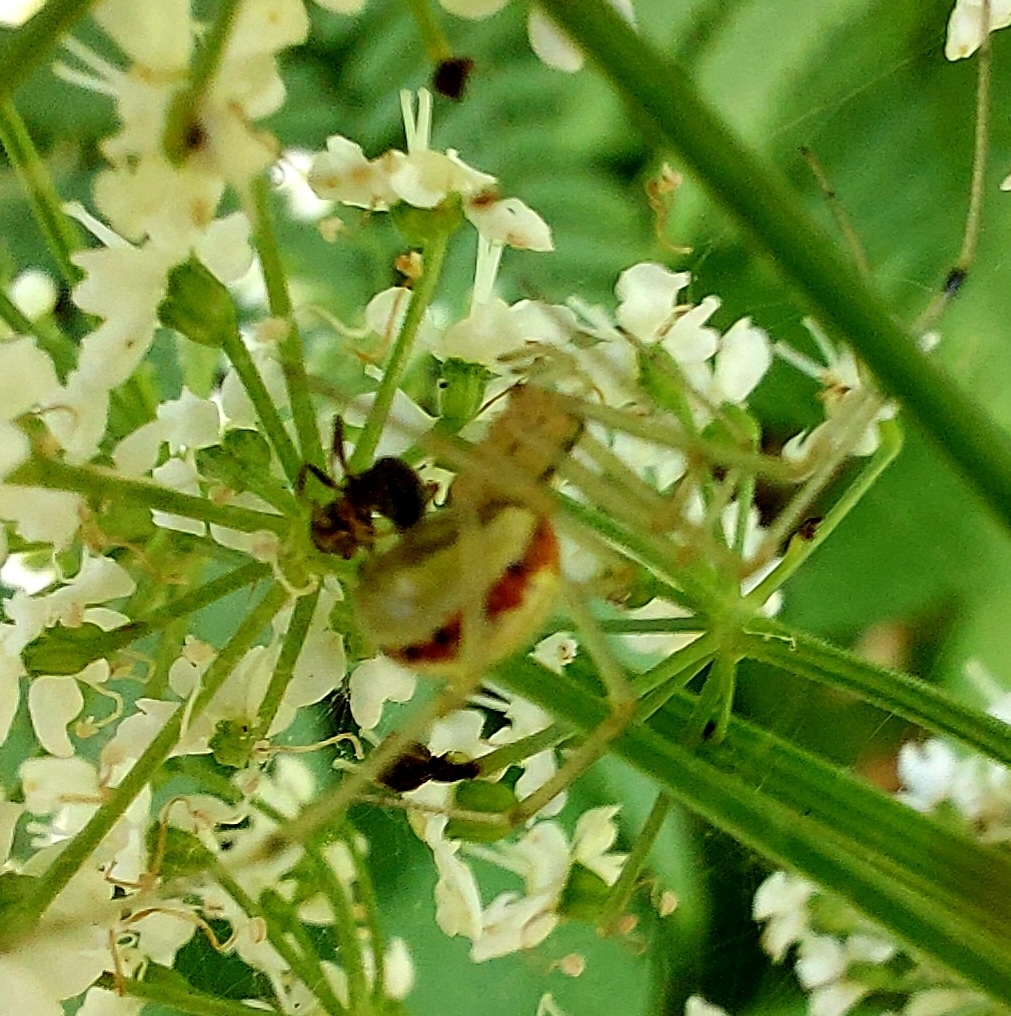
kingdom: Animalia
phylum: Arthropoda
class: Arachnida
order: Araneae
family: Theridiidae
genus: Enoplognatha
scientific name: Enoplognatha ovata
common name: Common candy-striped spider
